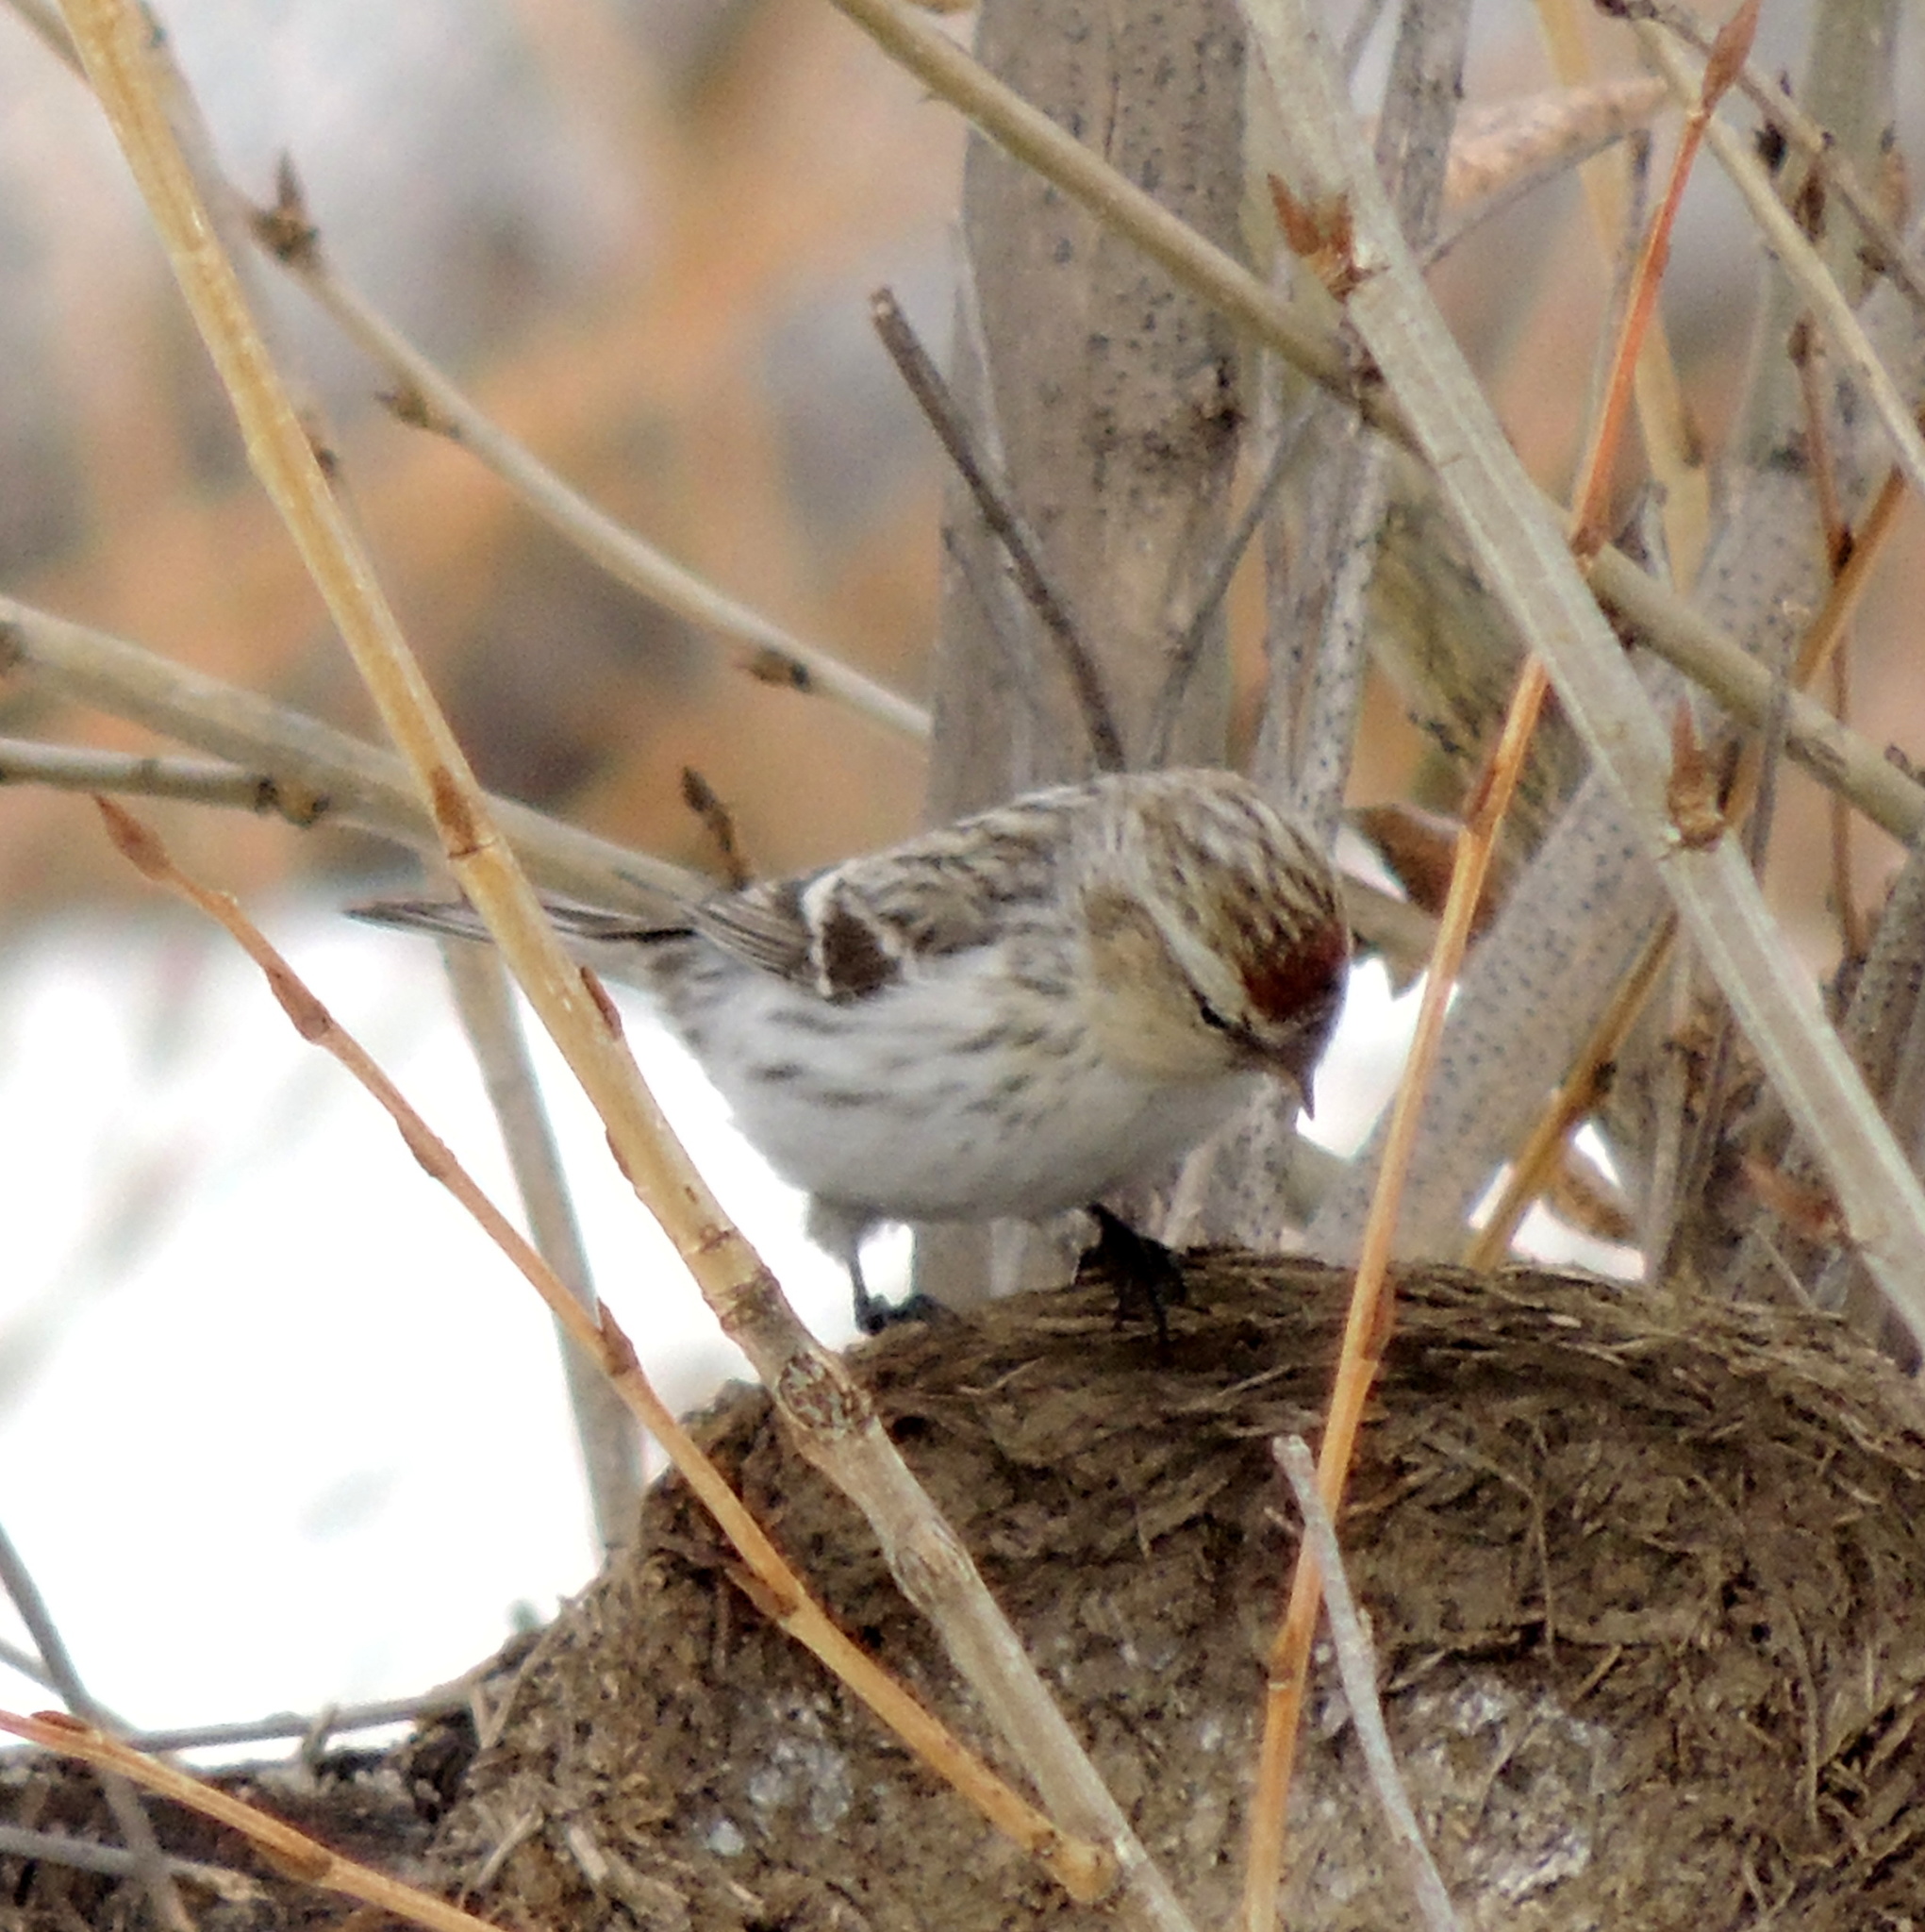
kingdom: Animalia
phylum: Chordata
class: Aves
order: Passeriformes
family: Fringillidae
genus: Acanthis
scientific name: Acanthis flammea
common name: Common redpoll
